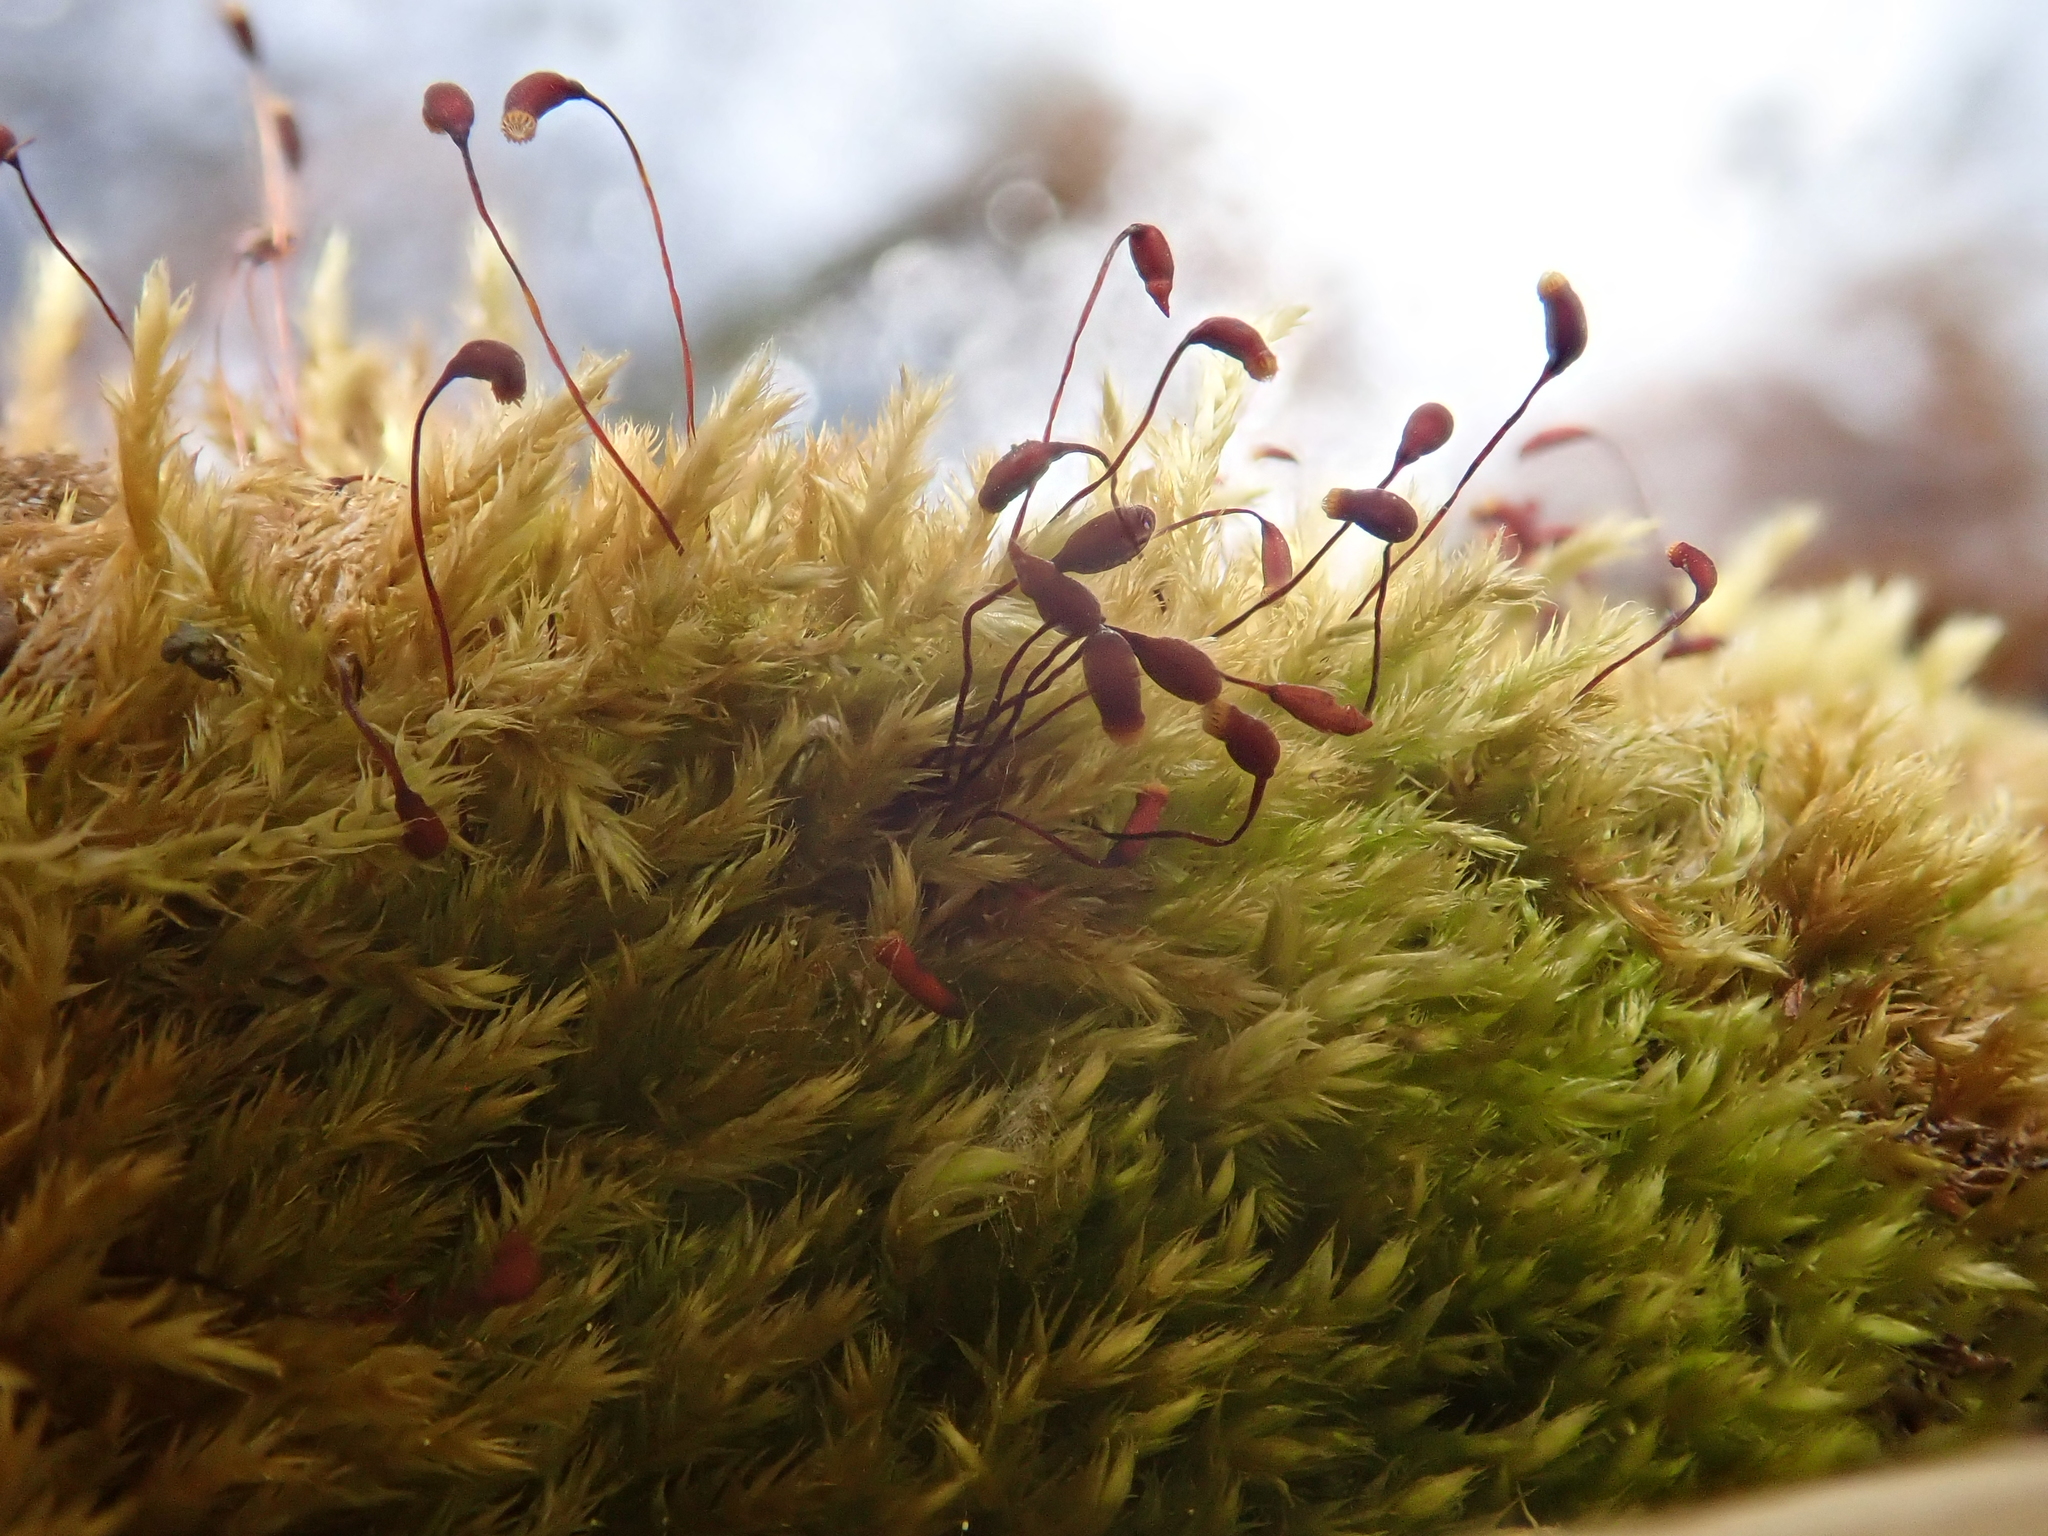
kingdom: Plantae
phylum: Bryophyta
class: Bryopsida
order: Hypnales
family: Brachytheciaceae
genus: Sciuro-hypnum
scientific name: Sciuro-hypnum populeum
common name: Matted feather-moss
